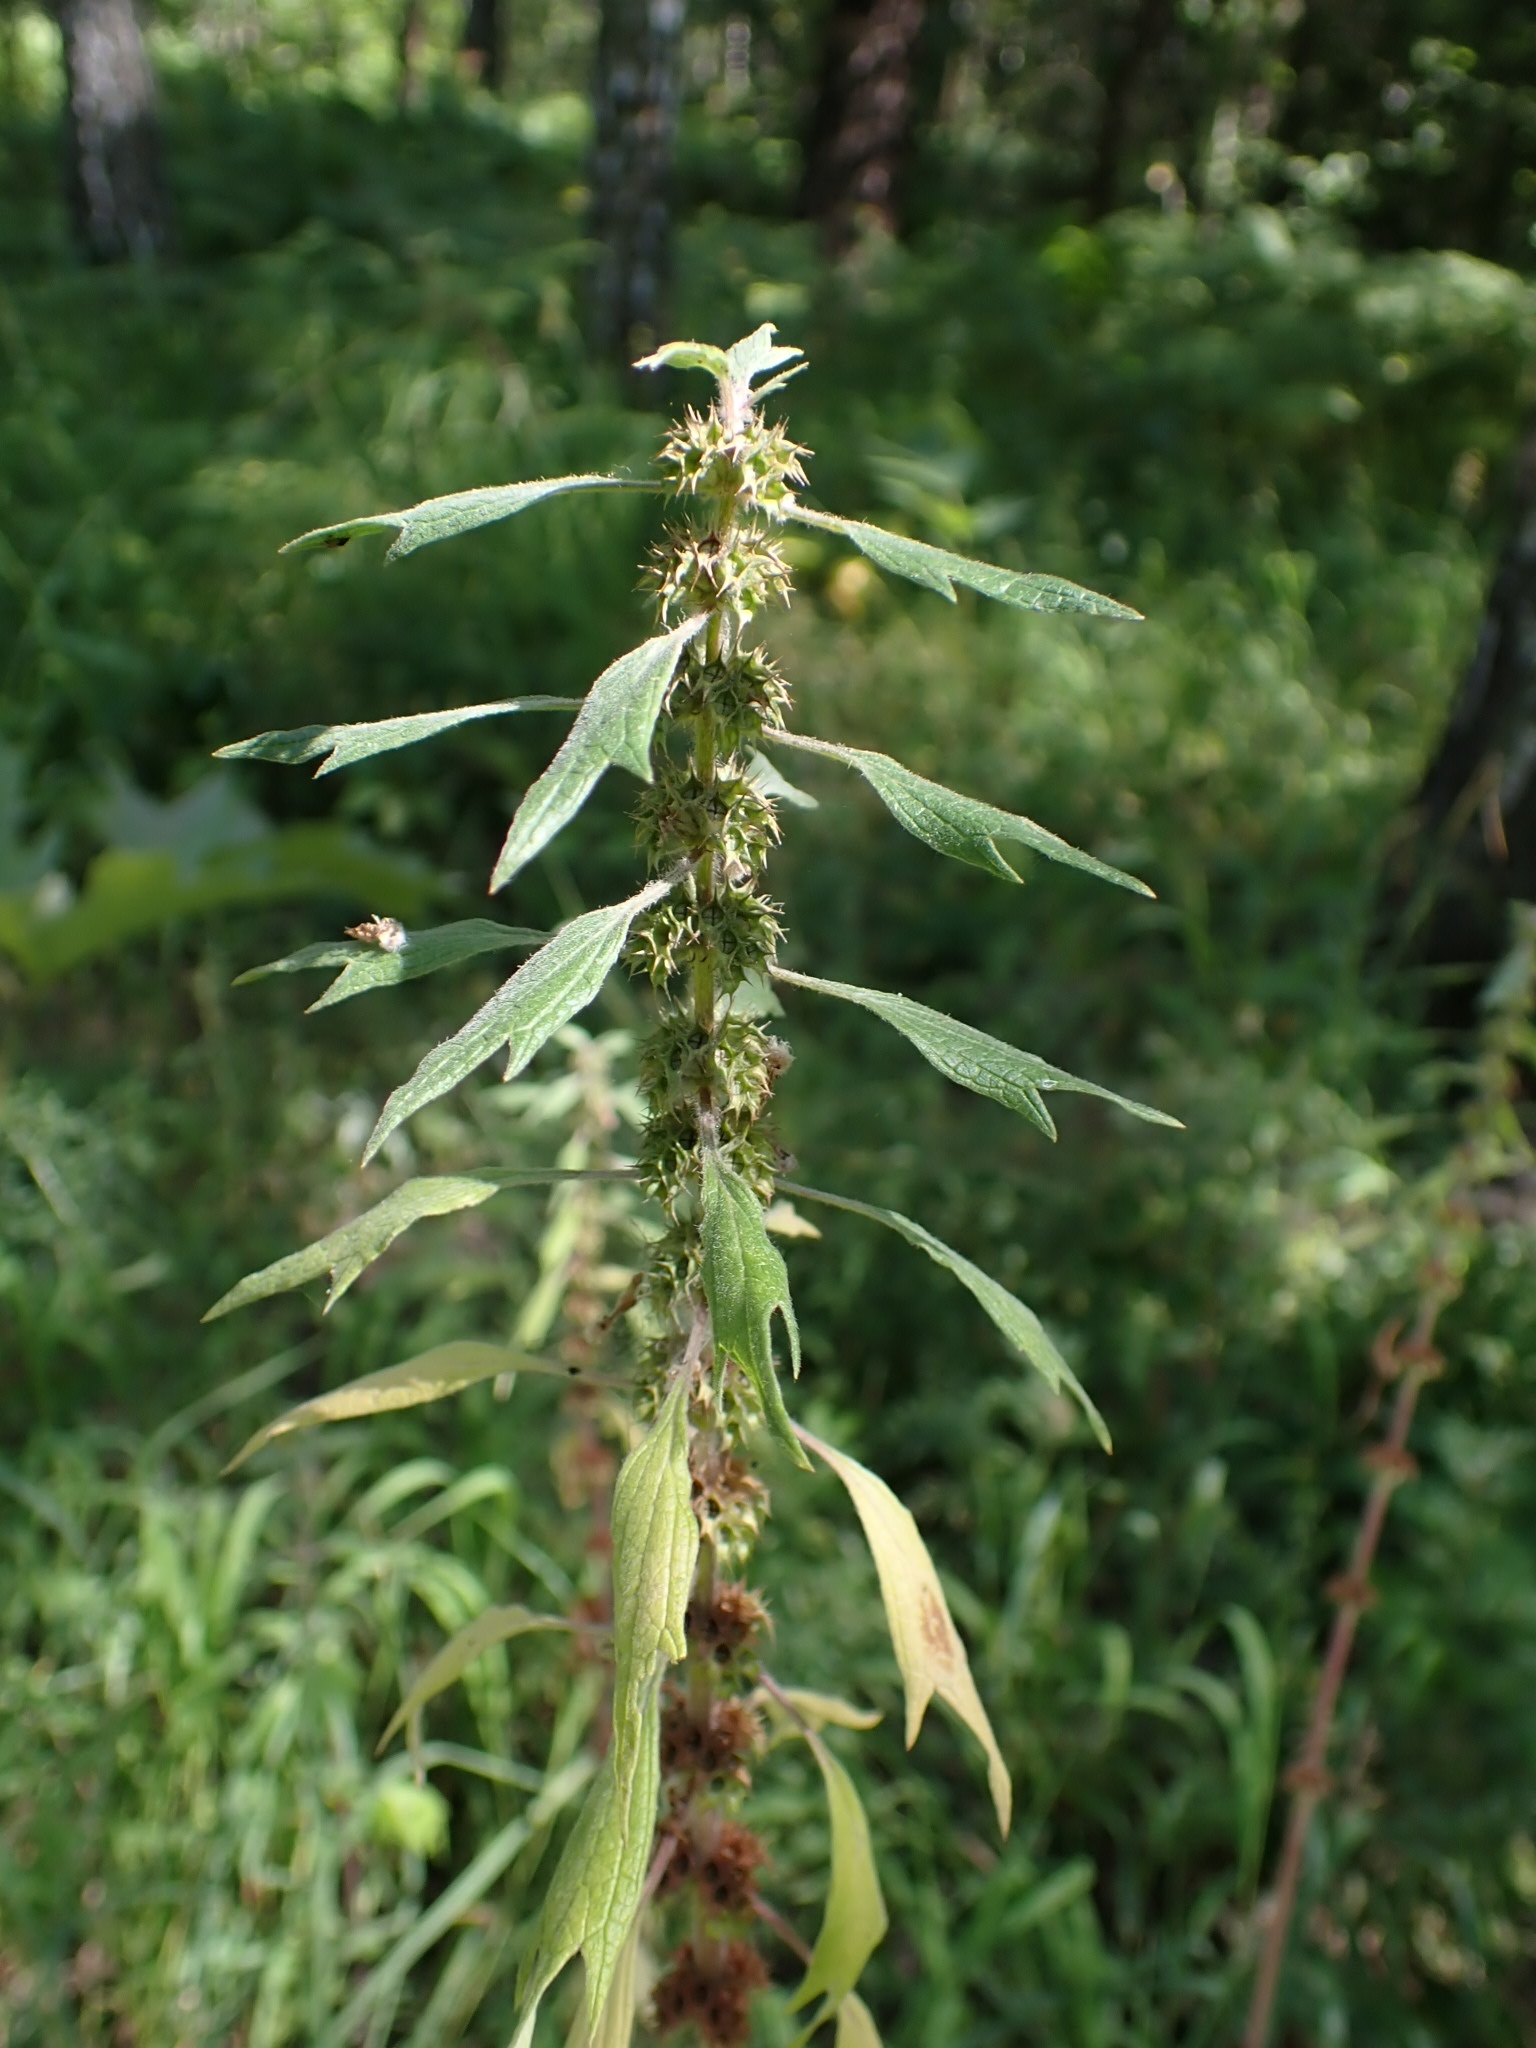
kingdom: Plantae
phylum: Tracheophyta
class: Magnoliopsida
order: Lamiales
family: Lamiaceae
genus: Leonurus
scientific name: Leonurus quinquelobatus
